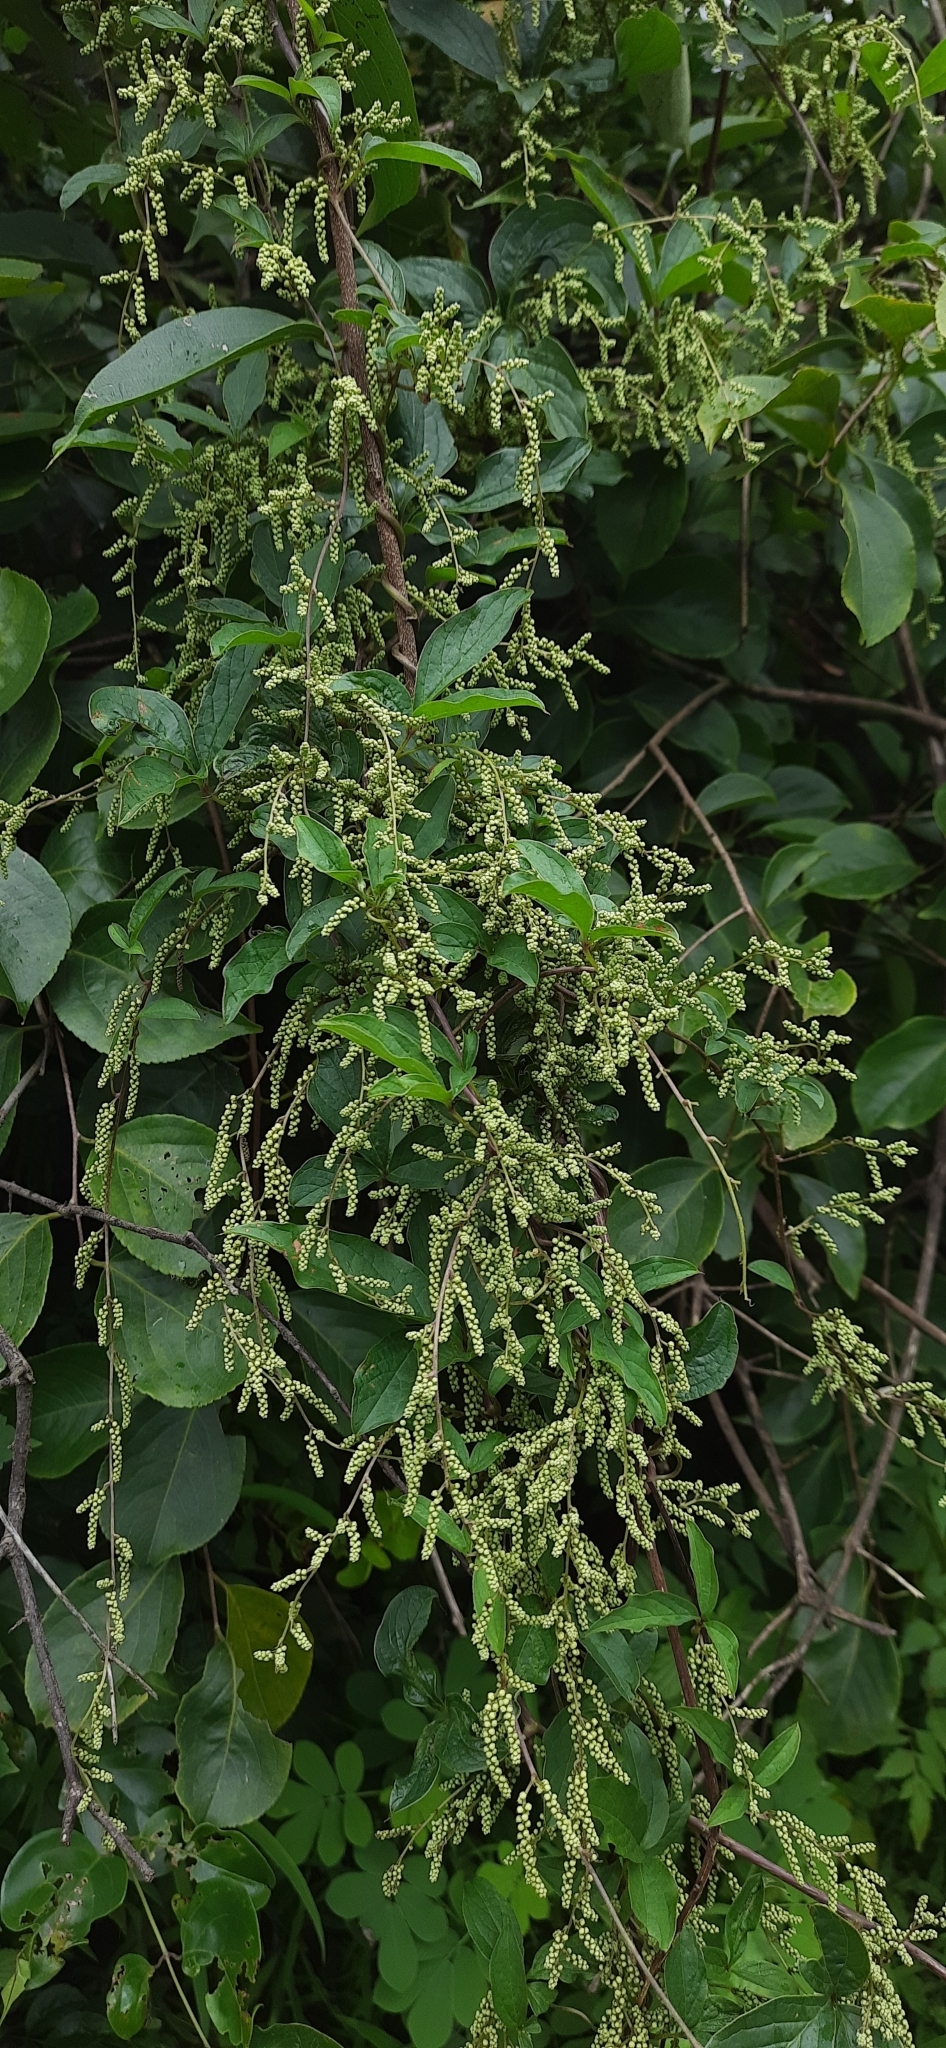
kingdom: Plantae
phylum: Tracheophyta
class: Liliopsida
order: Dioscoreales
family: Dioscoreaceae
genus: Dioscorea
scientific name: Dioscorea pentaphylla
